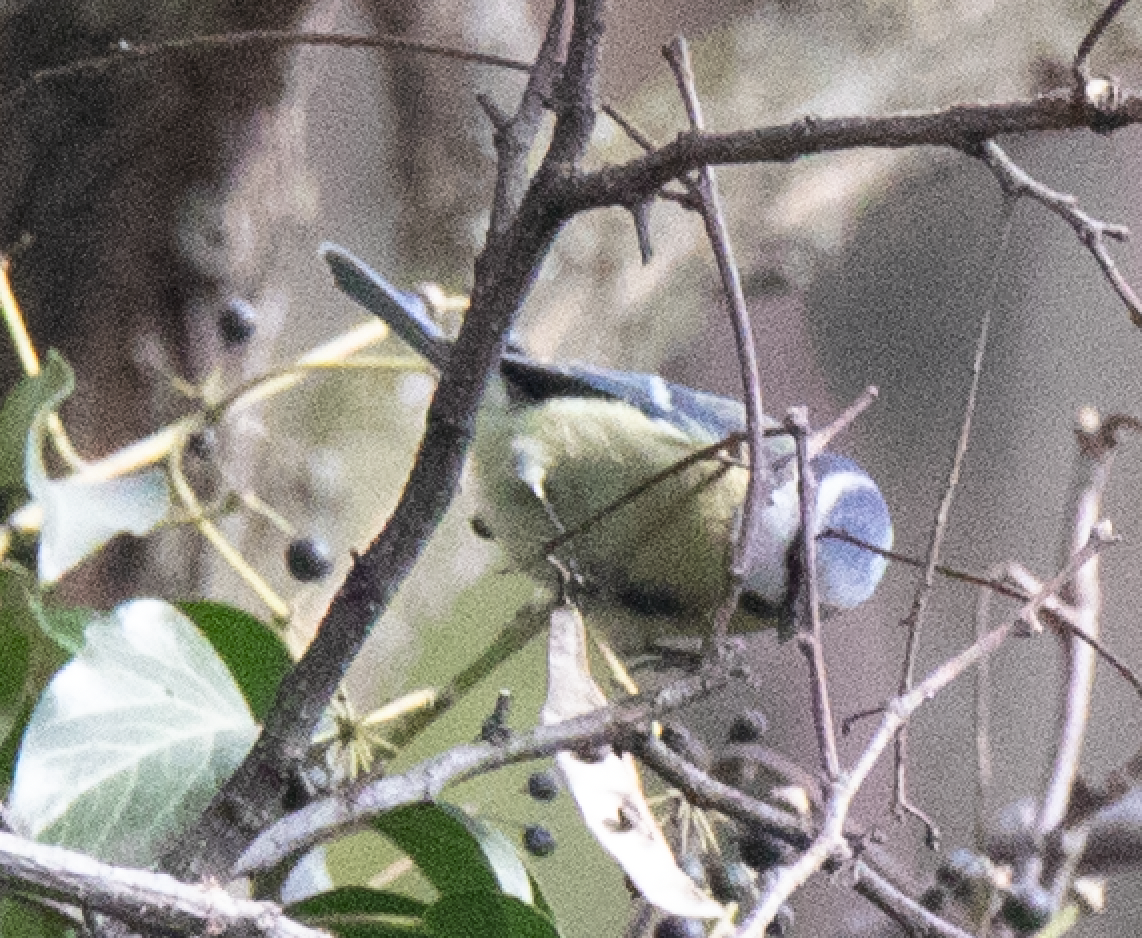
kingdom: Animalia
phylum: Chordata
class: Aves
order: Passeriformes
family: Paridae
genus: Cyanistes
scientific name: Cyanistes caeruleus
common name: Eurasian blue tit
